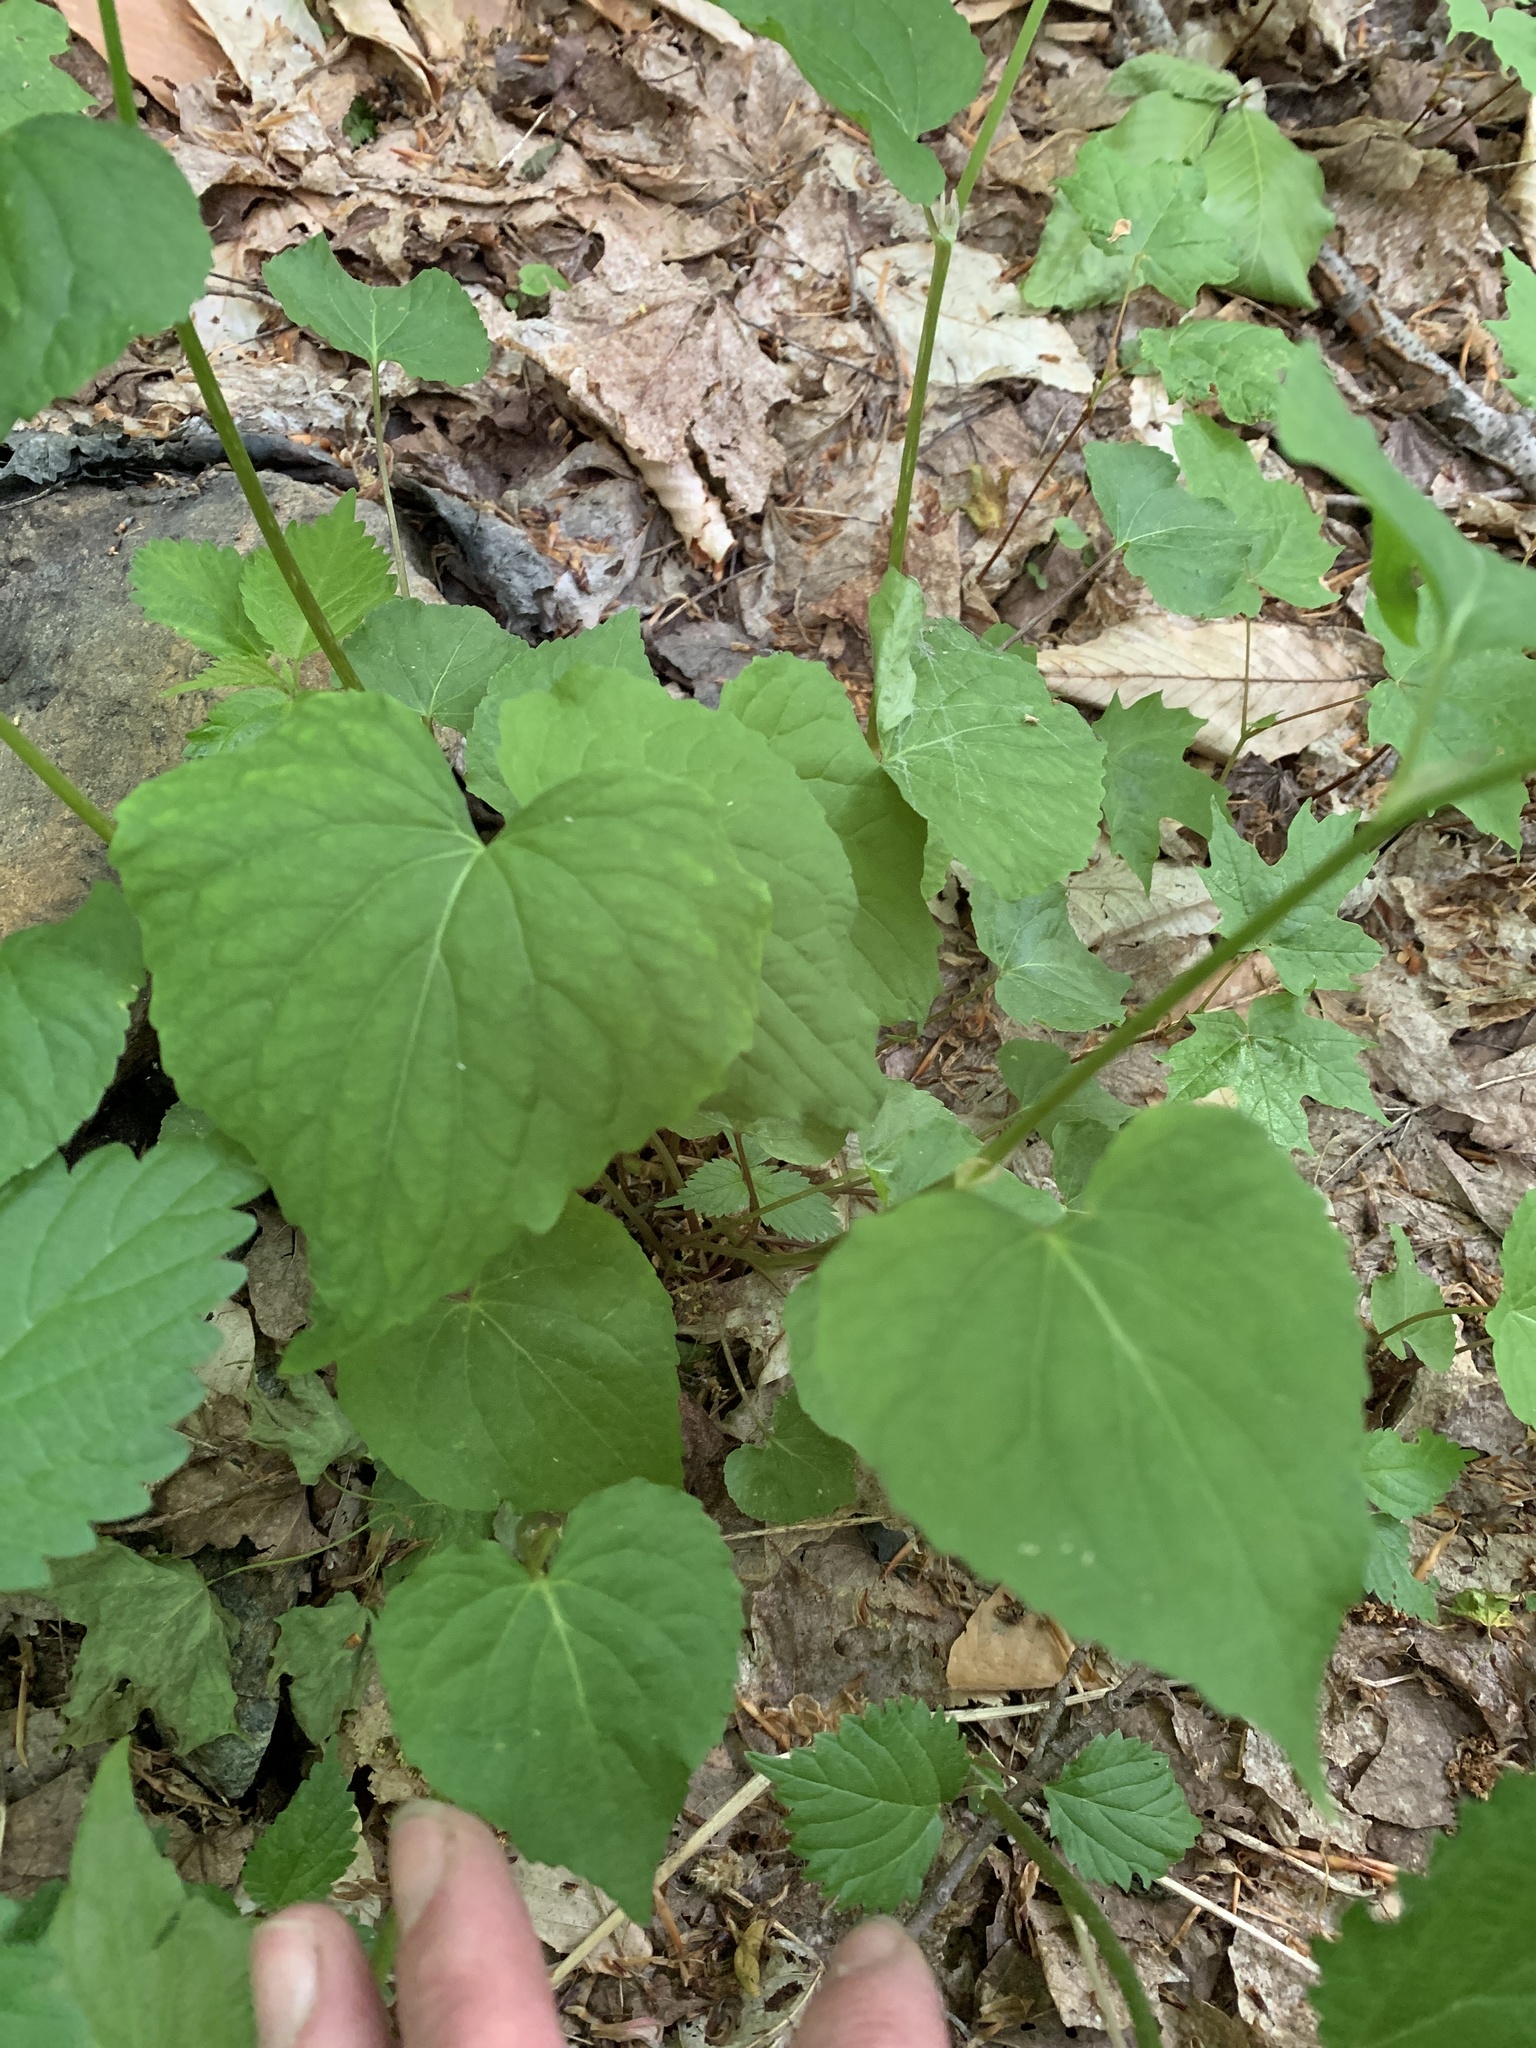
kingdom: Plantae
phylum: Tracheophyta
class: Magnoliopsida
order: Malpighiales
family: Violaceae
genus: Viola
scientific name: Viola canadensis
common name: Canada violet
